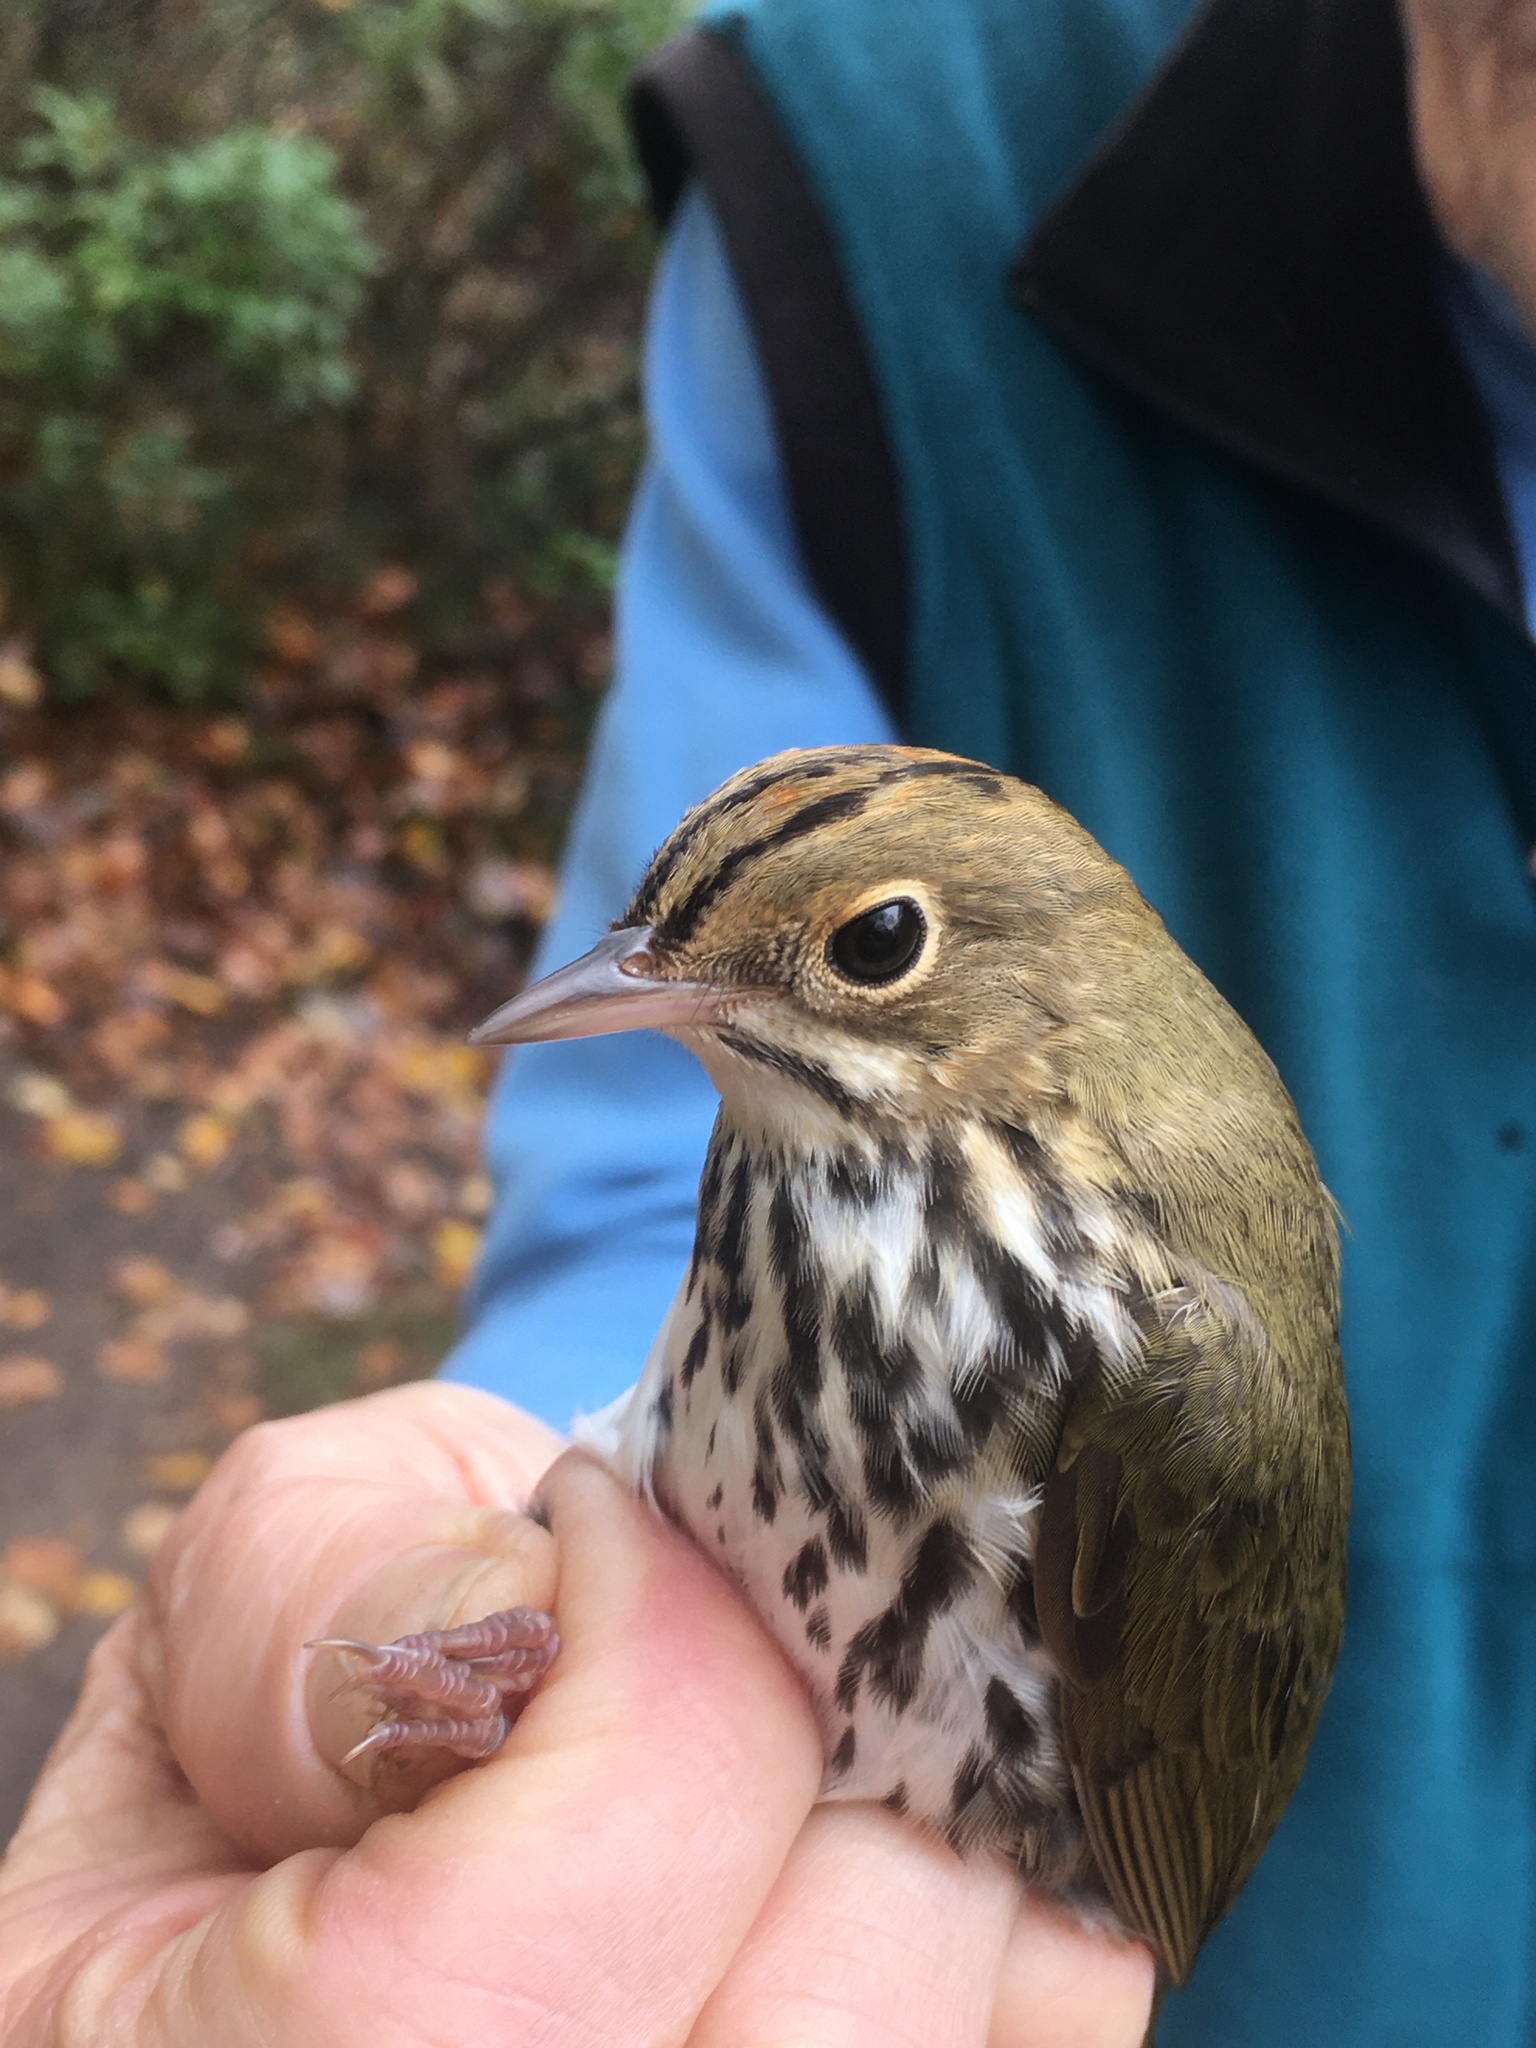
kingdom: Animalia
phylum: Chordata
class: Aves
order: Passeriformes
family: Parulidae
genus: Seiurus
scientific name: Seiurus aurocapilla
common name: Ovenbird
